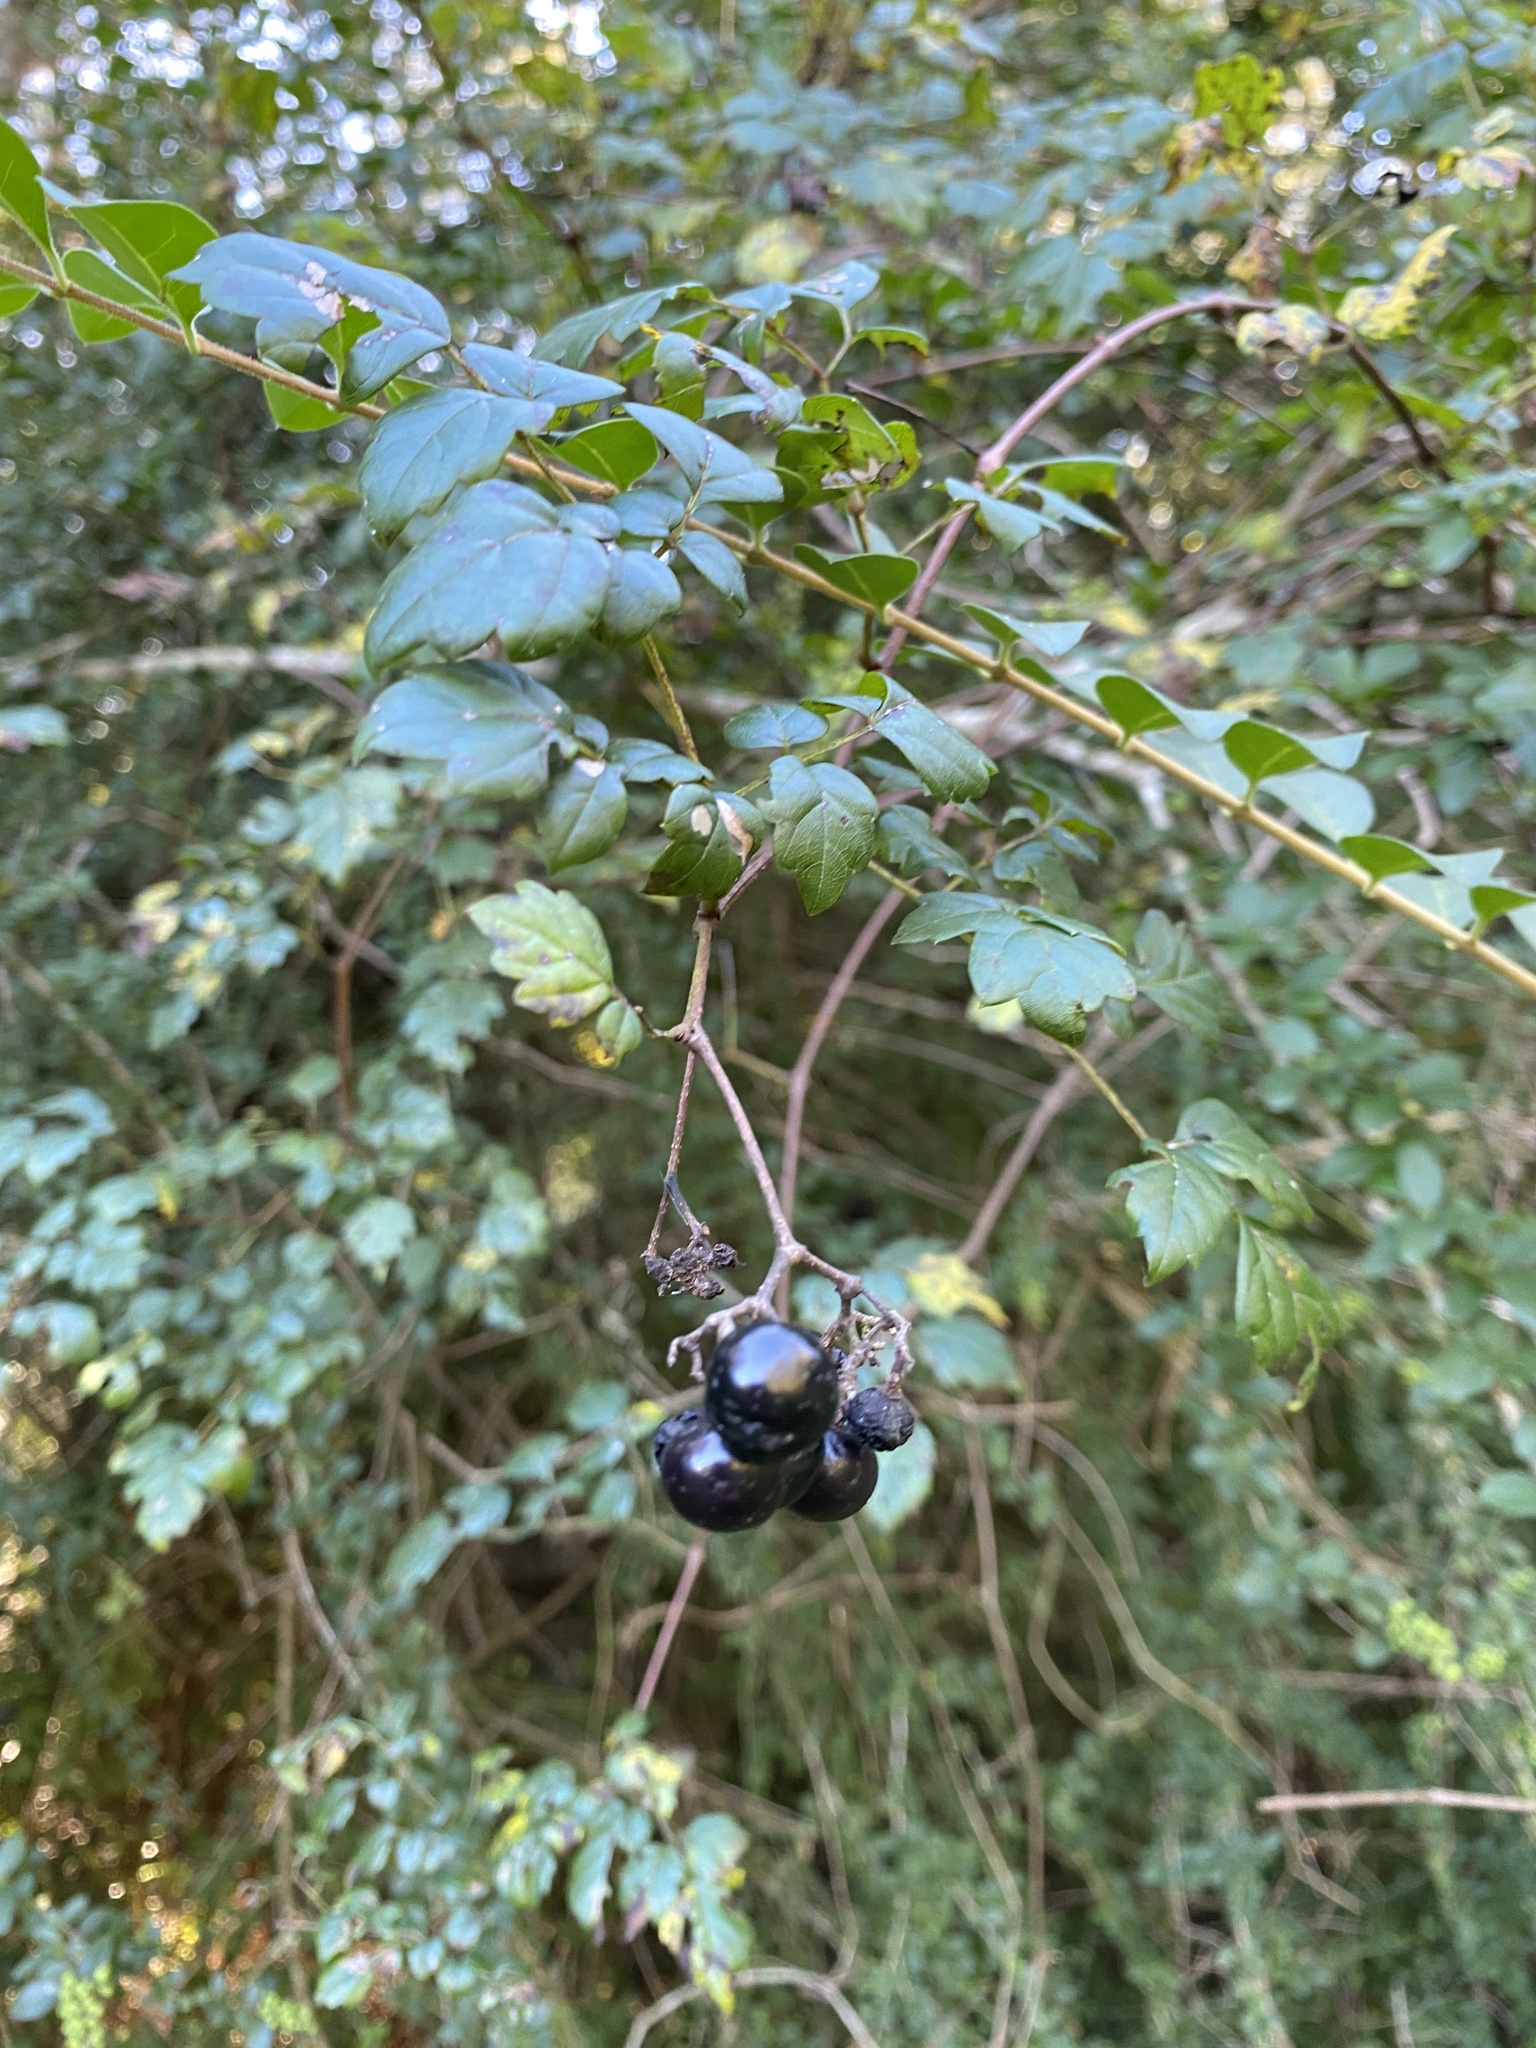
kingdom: Plantae
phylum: Tracheophyta
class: Magnoliopsida
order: Vitales
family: Vitaceae
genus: Nekemias
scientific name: Nekemias arborea
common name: Peppervine
